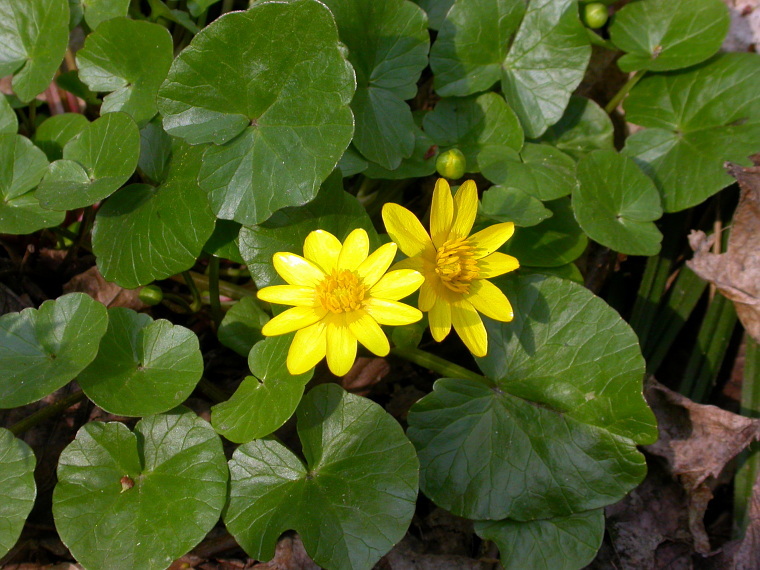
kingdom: Plantae
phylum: Tracheophyta
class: Magnoliopsida
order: Ranunculales
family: Ranunculaceae
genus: Ficaria
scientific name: Ficaria verna
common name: Lesser celandine
